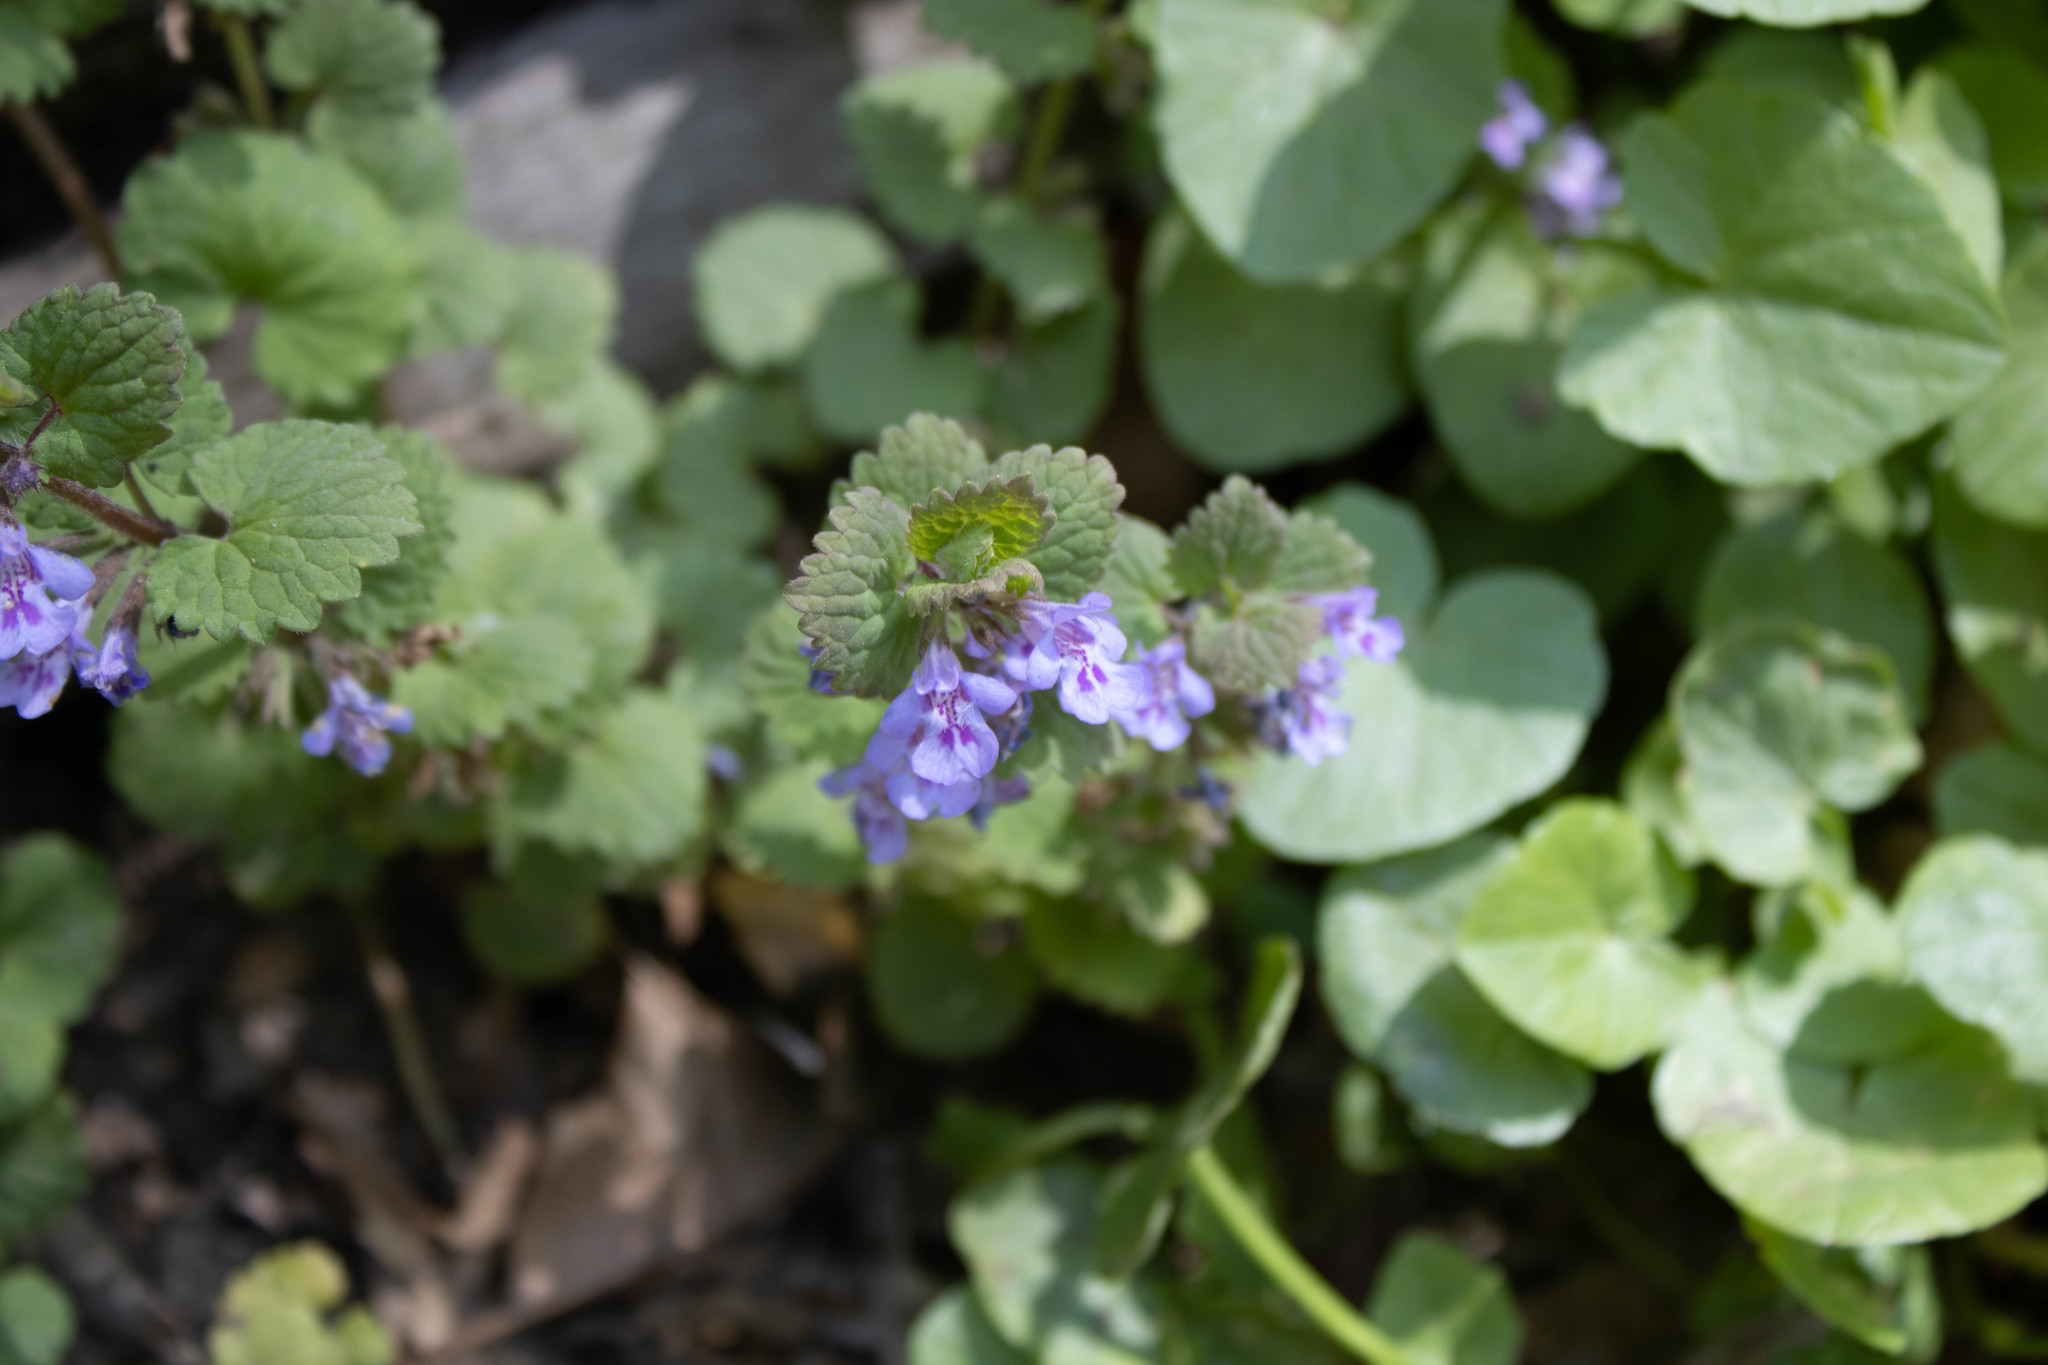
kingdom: Plantae
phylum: Tracheophyta
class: Magnoliopsida
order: Lamiales
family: Lamiaceae
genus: Glechoma
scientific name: Glechoma hederacea
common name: Ground ivy
